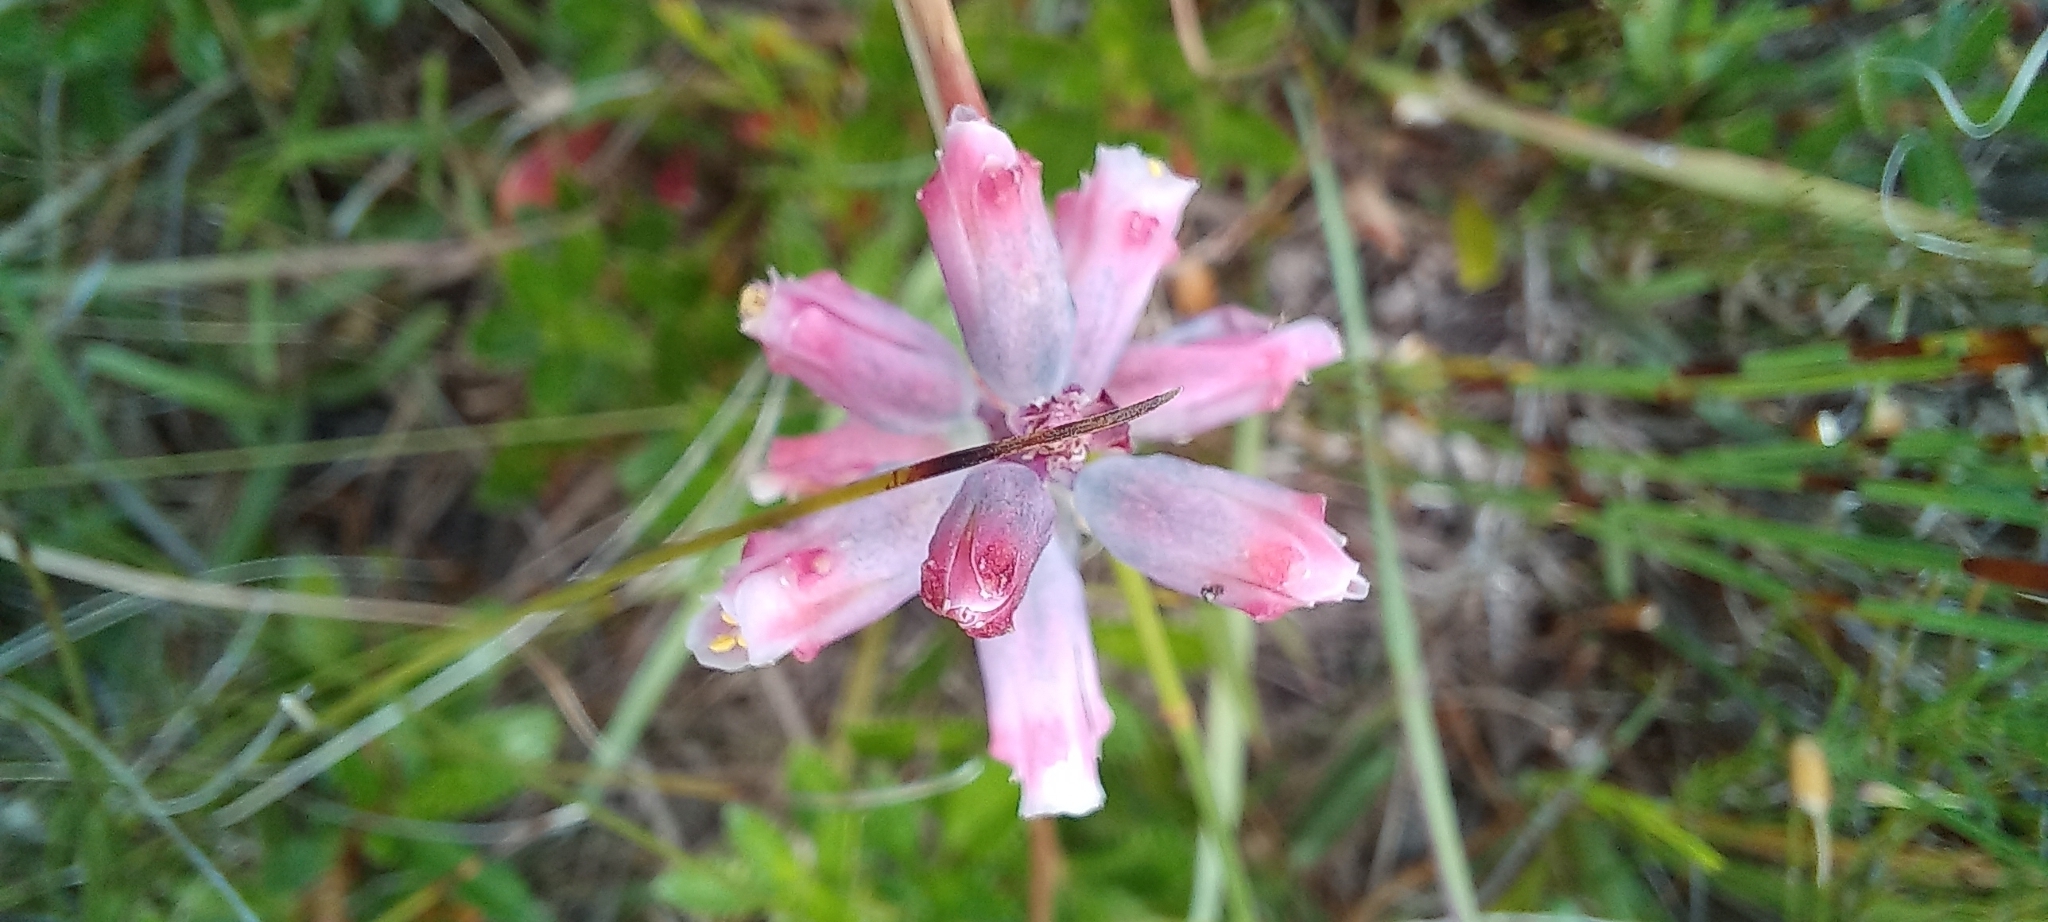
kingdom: Plantae
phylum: Tracheophyta
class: Liliopsida
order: Asparagales
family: Asparagaceae
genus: Lachenalia
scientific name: Lachenalia rosea
